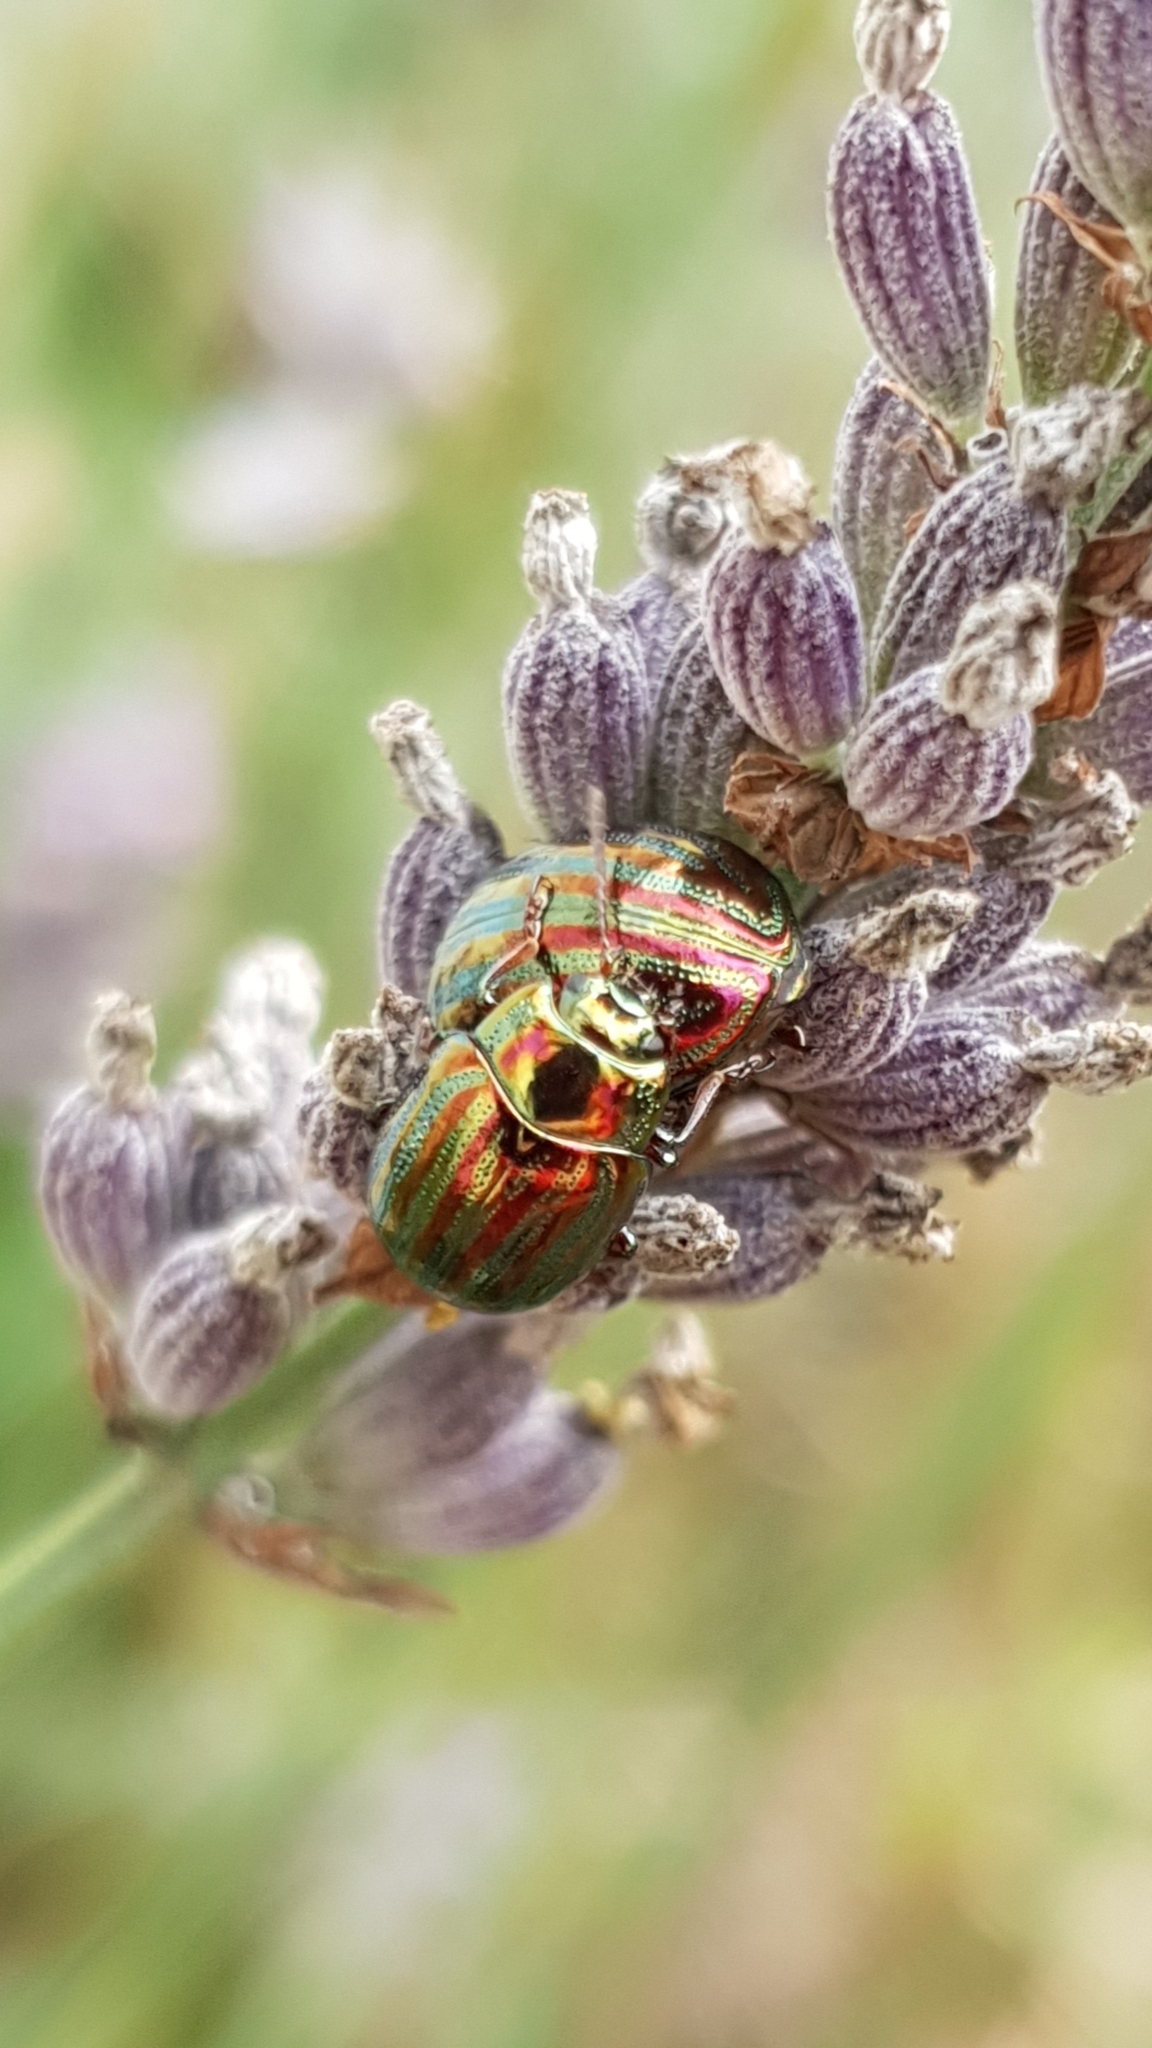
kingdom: Animalia
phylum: Arthropoda
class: Insecta
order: Coleoptera
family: Chrysomelidae
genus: Chrysolina
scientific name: Chrysolina americana
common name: Rosemary beetle
